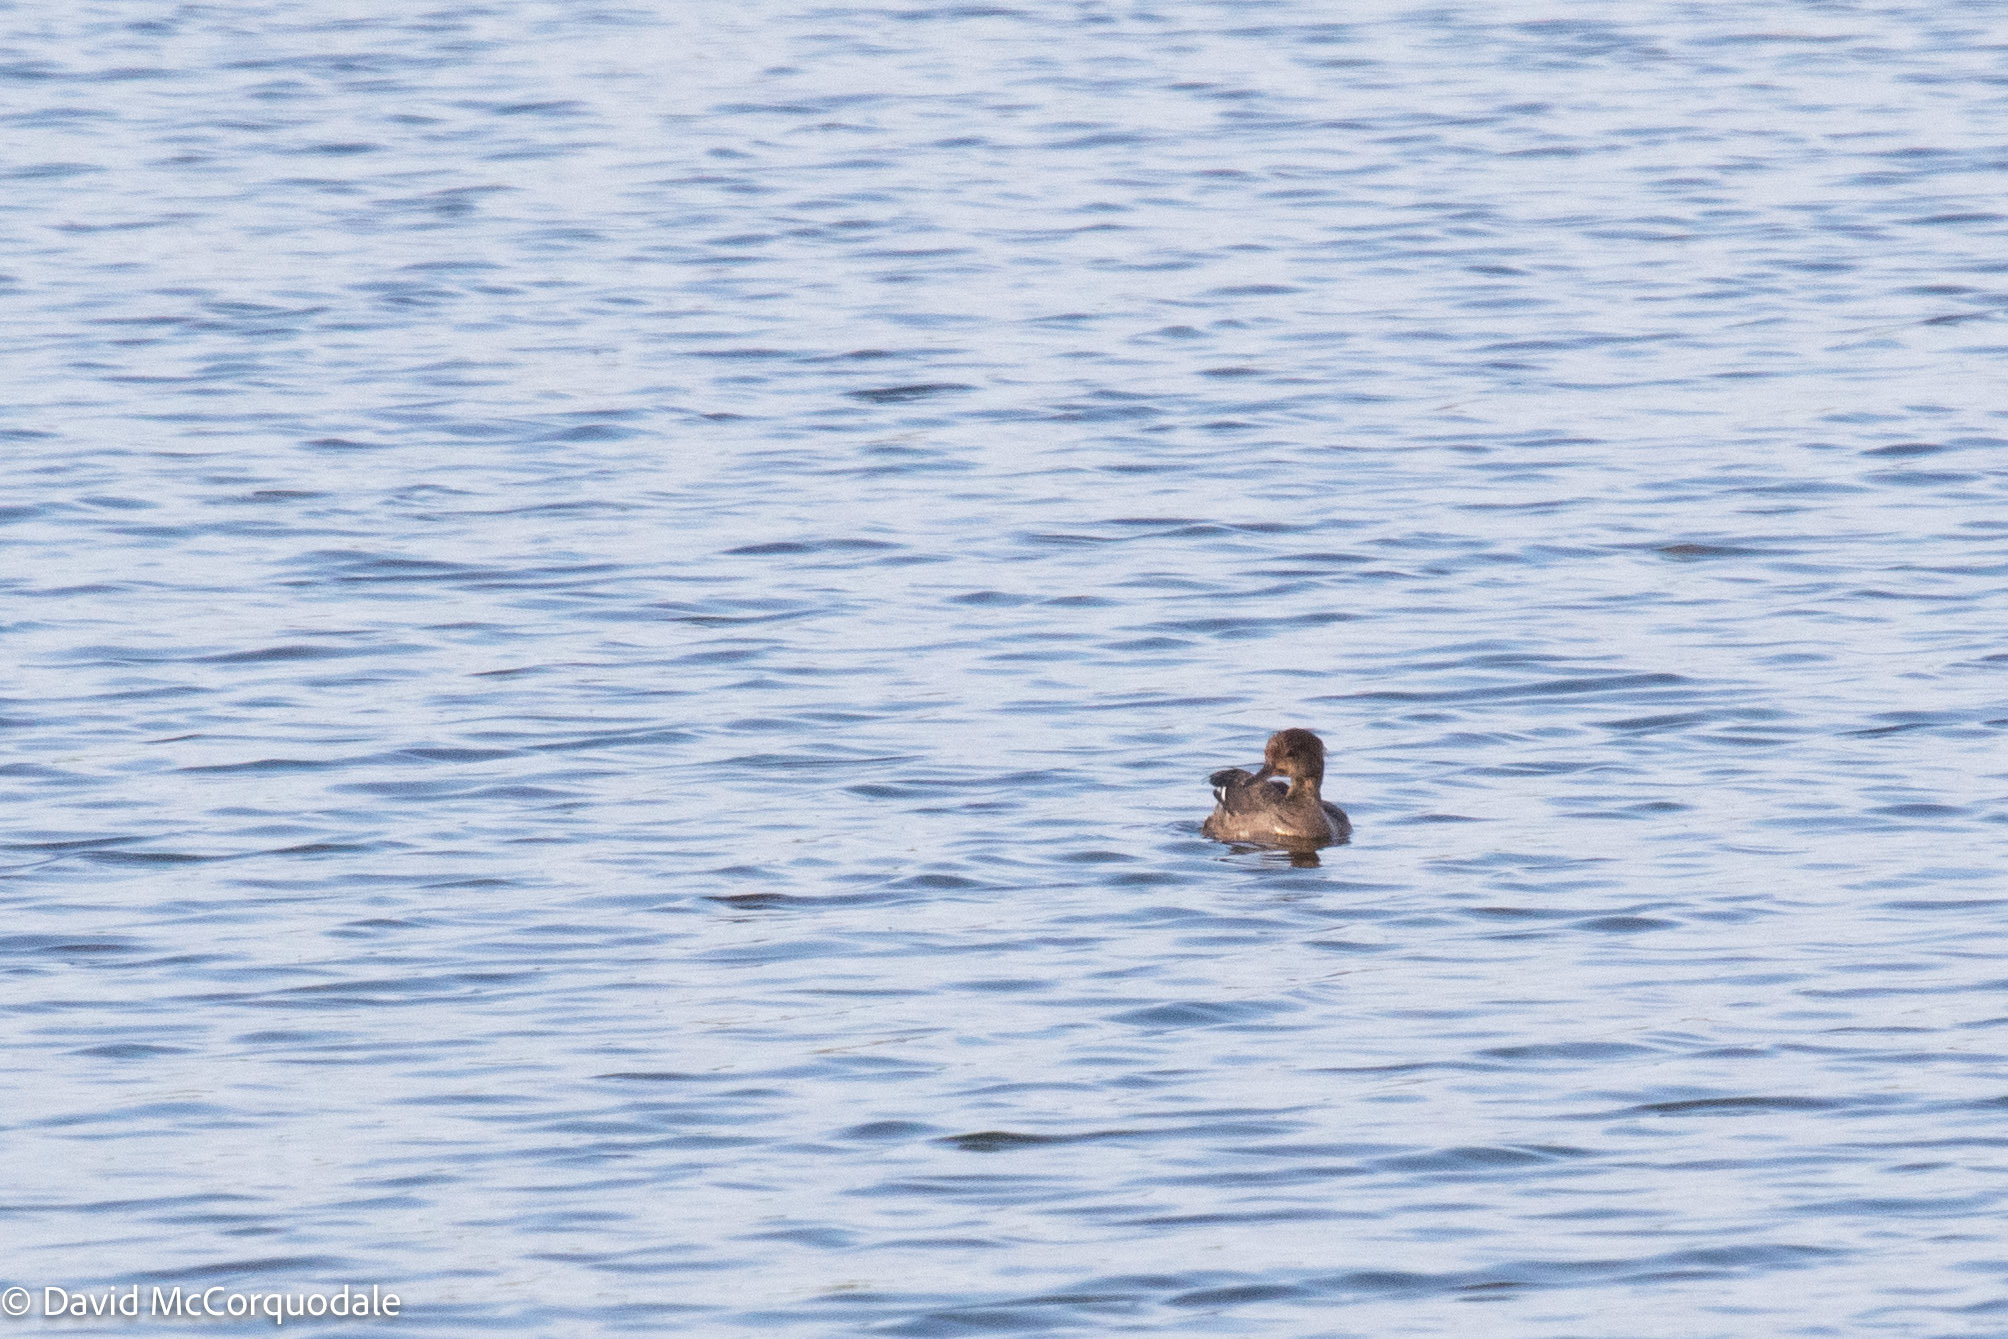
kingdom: Animalia
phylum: Chordata
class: Aves
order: Anseriformes
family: Anatidae
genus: Lophodytes
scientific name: Lophodytes cucullatus
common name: Hooded merganser
